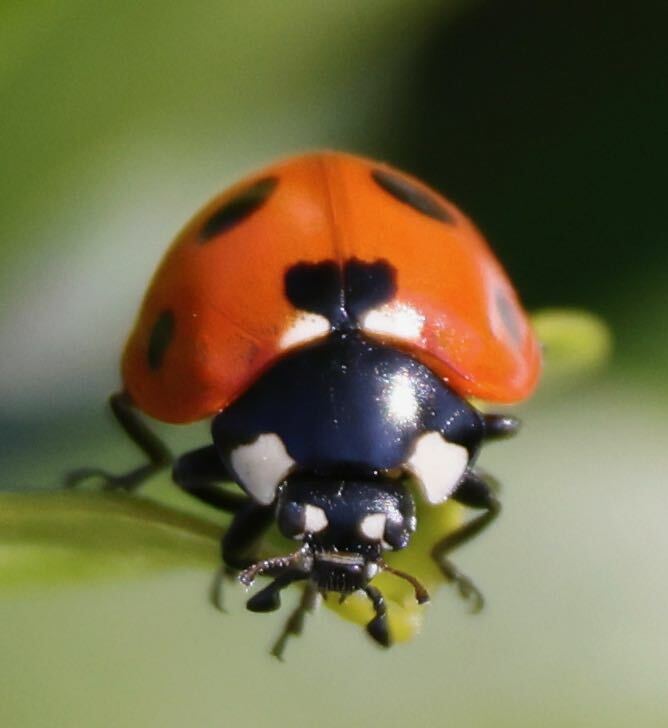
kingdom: Animalia
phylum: Arthropoda
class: Insecta
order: Coleoptera
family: Coccinellidae
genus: Coccinella
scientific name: Coccinella septempunctata
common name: Sevenspotted lady beetle
